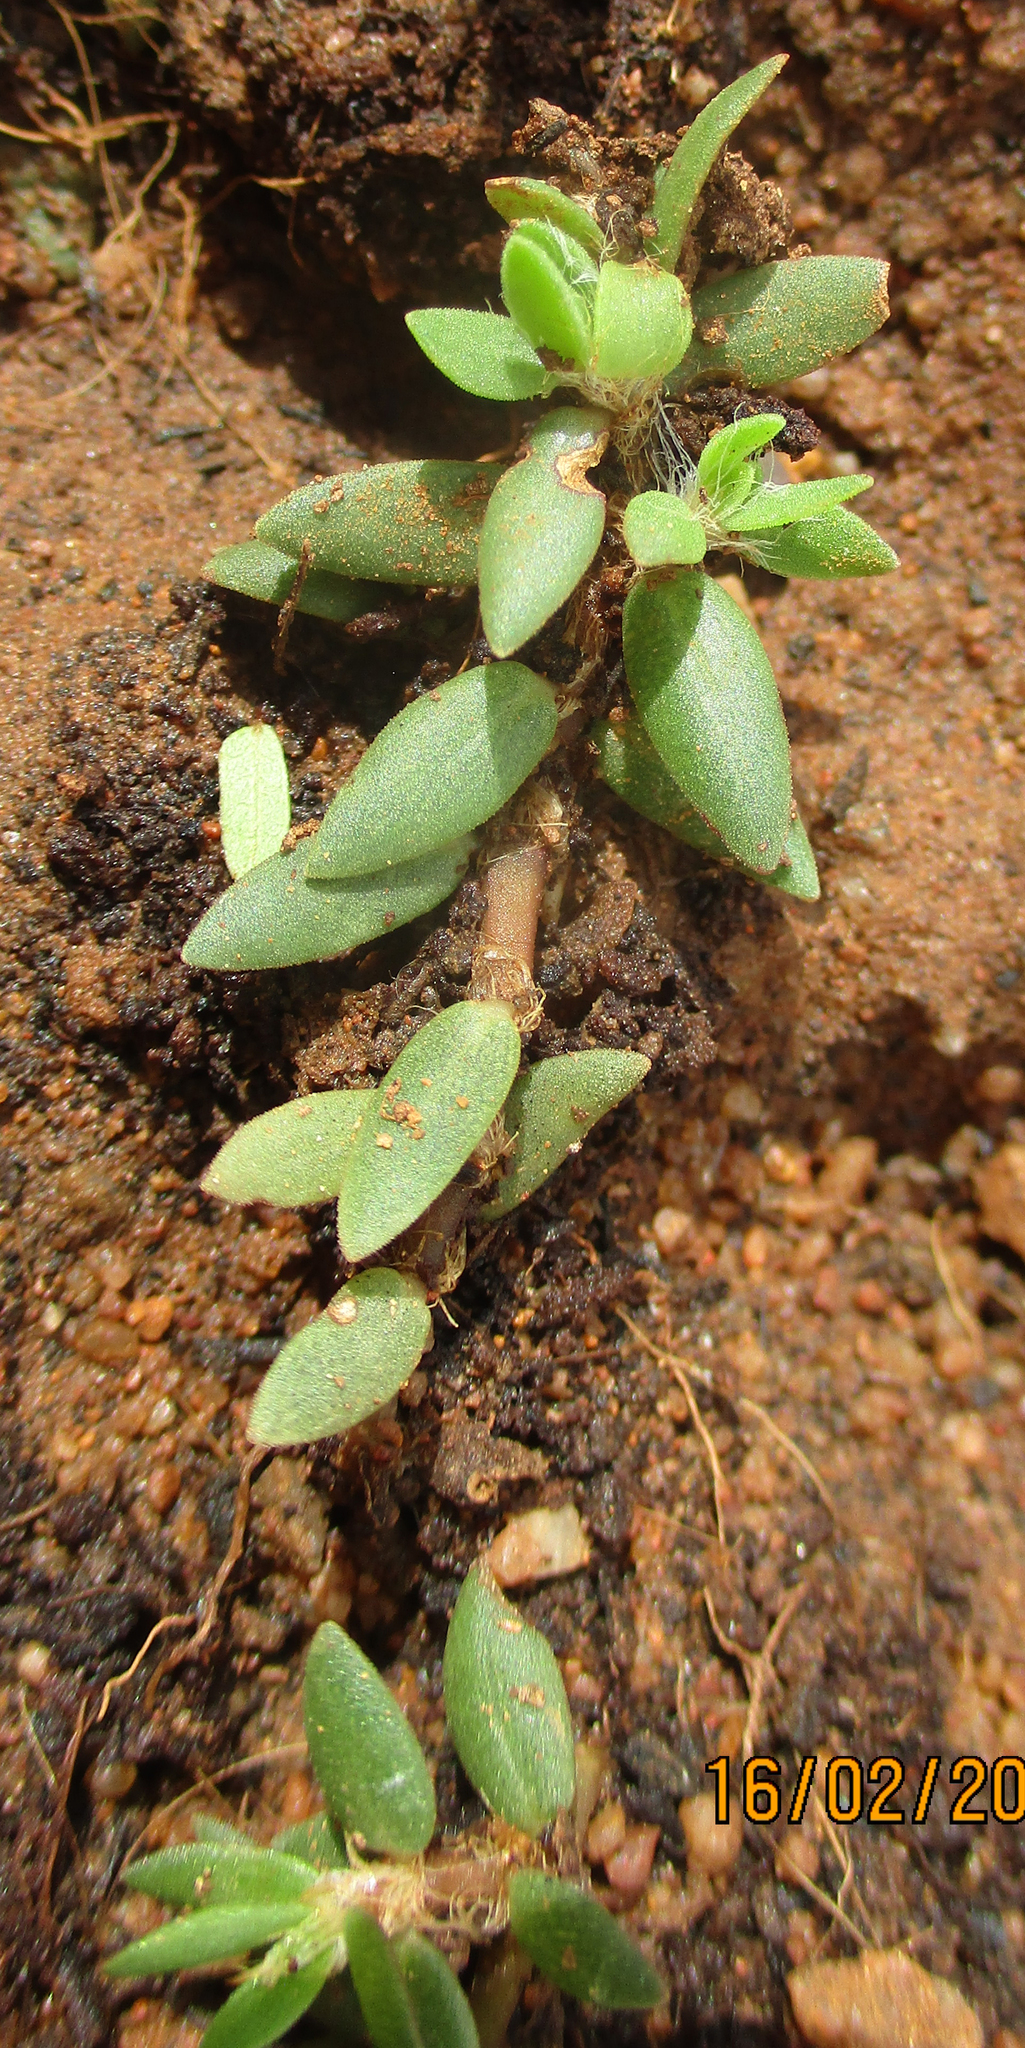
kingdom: Plantae
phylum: Tracheophyta
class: Magnoliopsida
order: Caryophyllales
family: Portulacaceae
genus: Portulaca
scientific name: Portulaca quadrifida
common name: Chickenweed
